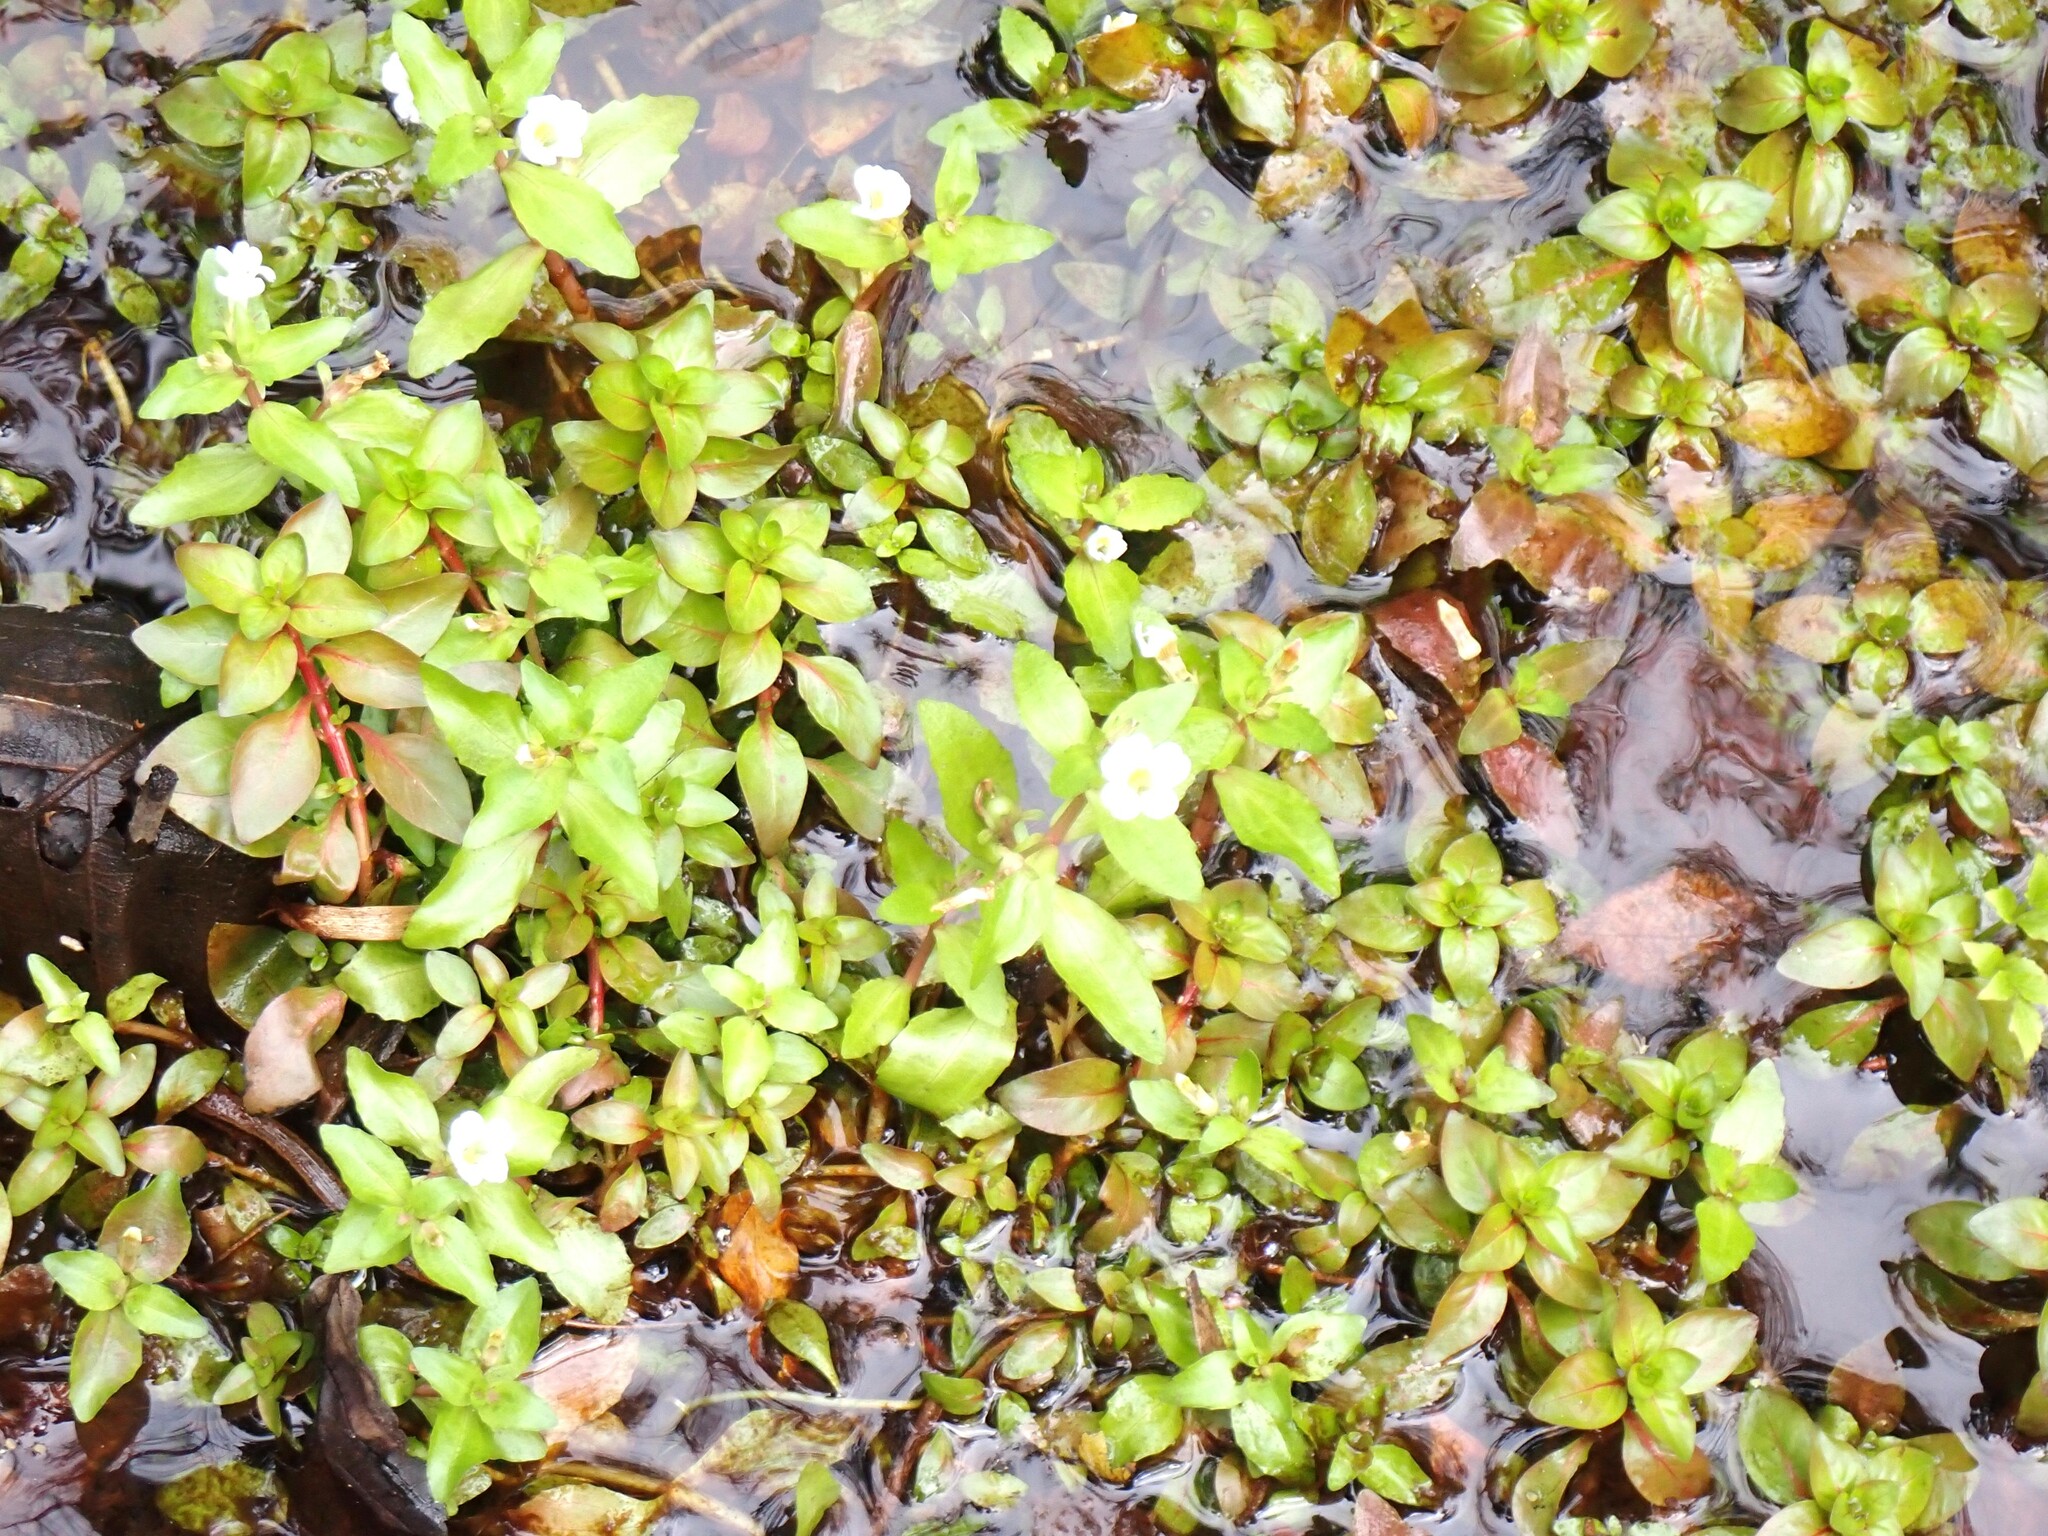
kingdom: Plantae
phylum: Tracheophyta
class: Magnoliopsida
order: Lamiales
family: Plantaginaceae
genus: Gratiola
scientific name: Gratiola virginiana
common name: Roundfruit hedgehyssop
